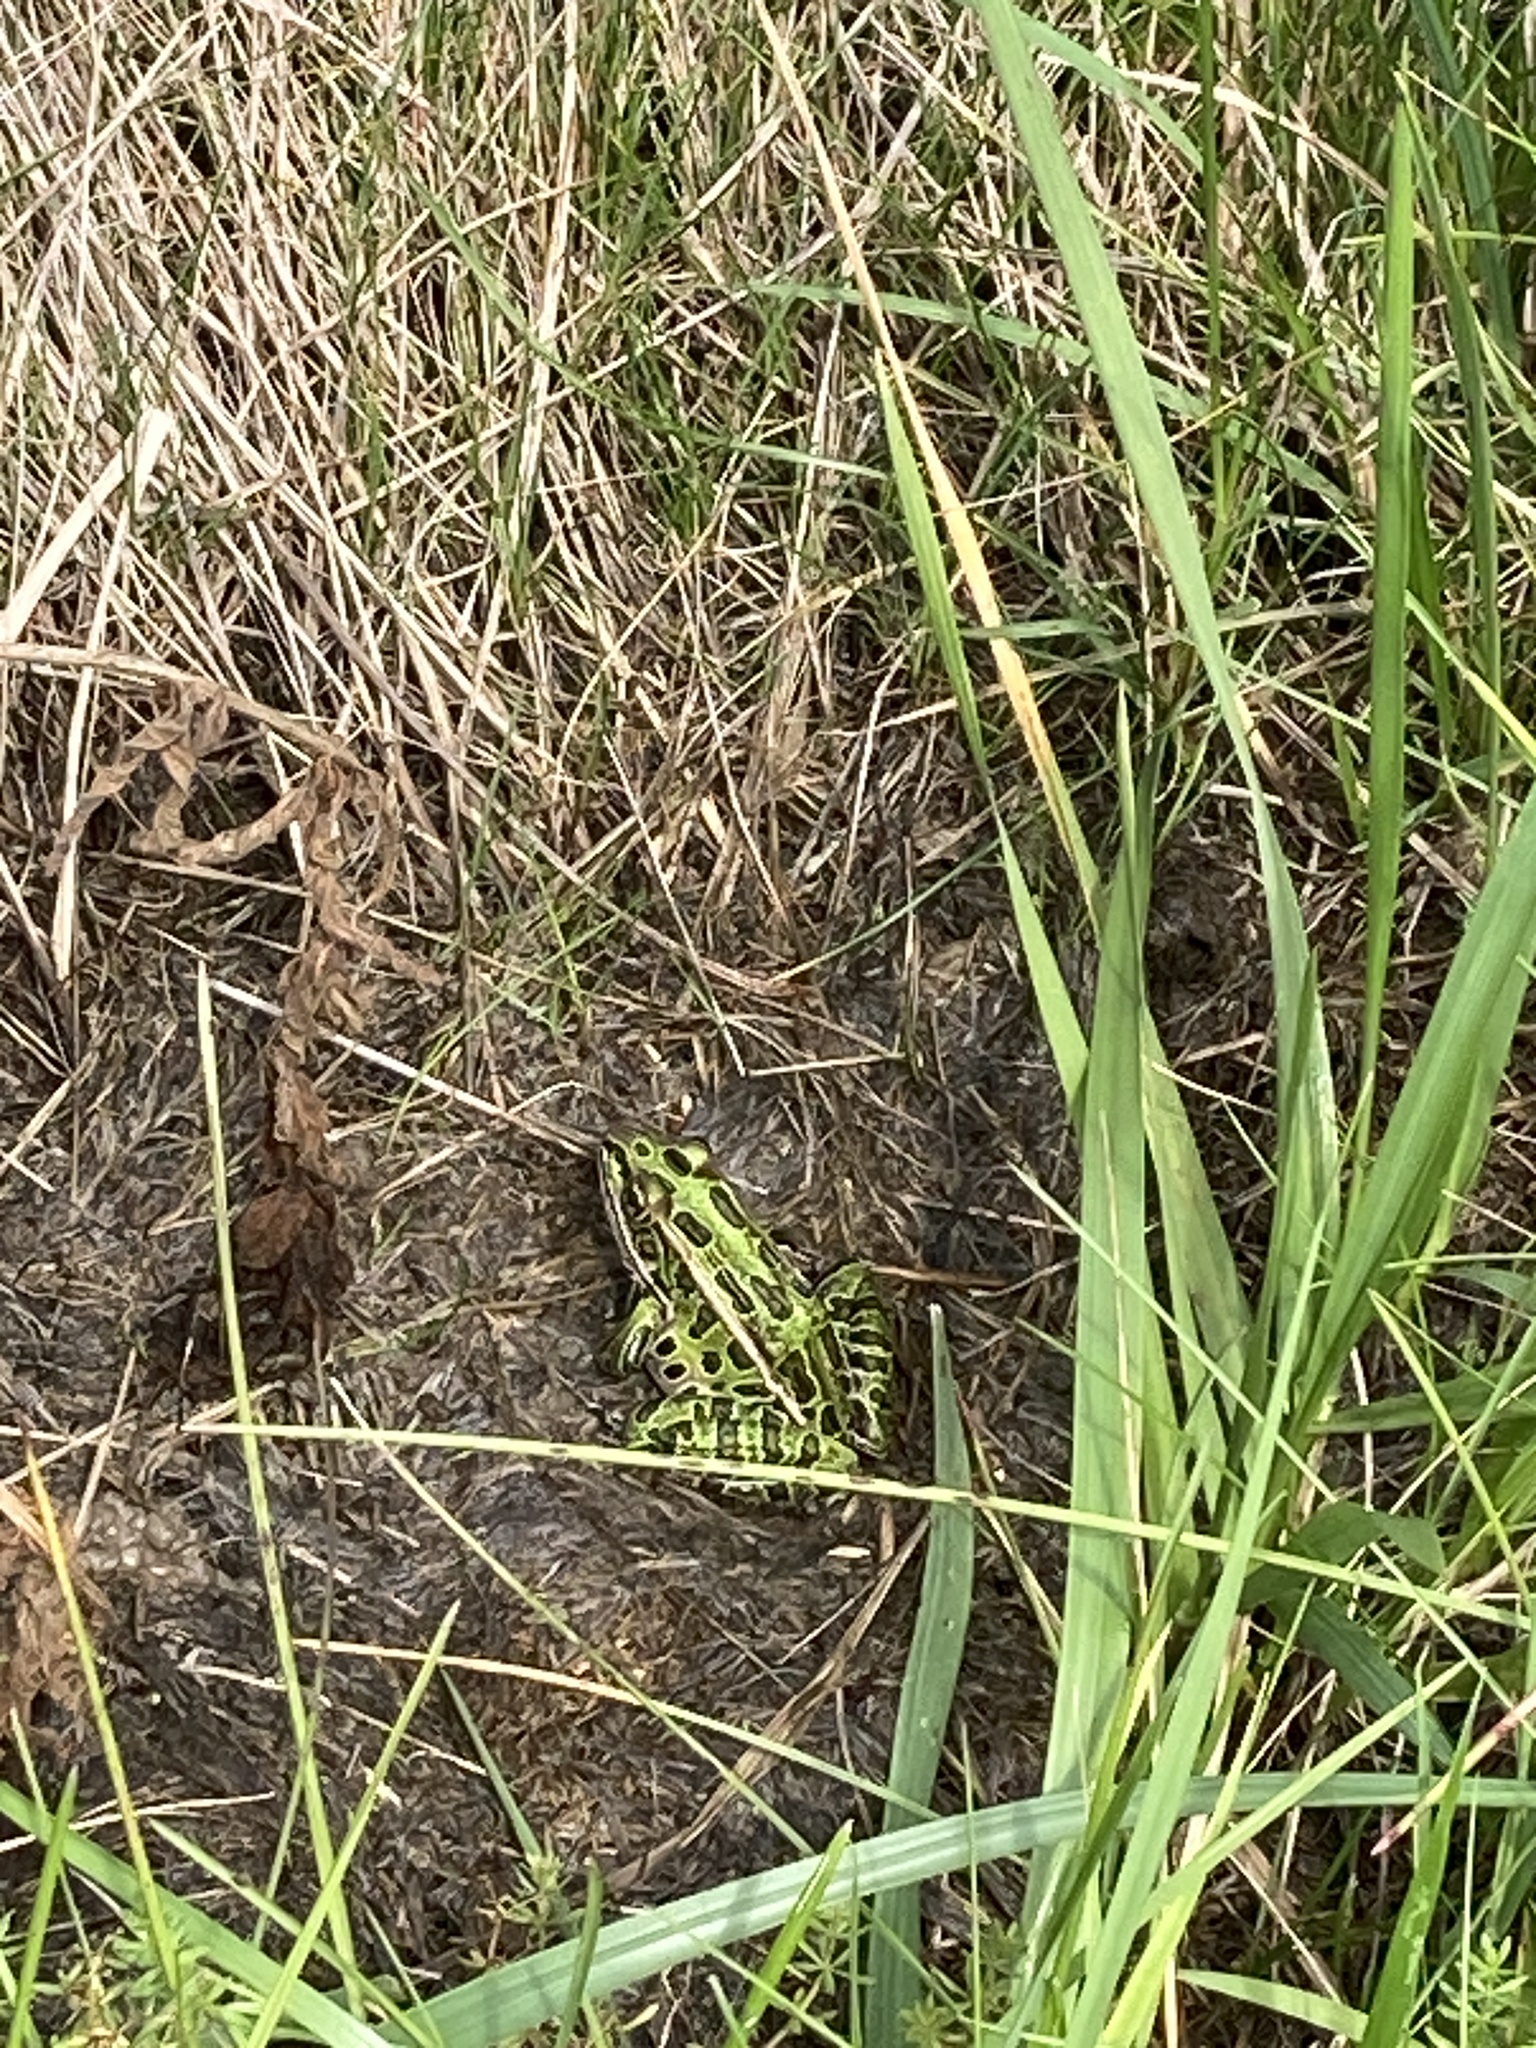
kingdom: Animalia
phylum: Chordata
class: Amphibia
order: Anura
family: Ranidae
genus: Lithobates
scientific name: Lithobates pipiens
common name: Northern leopard frog
